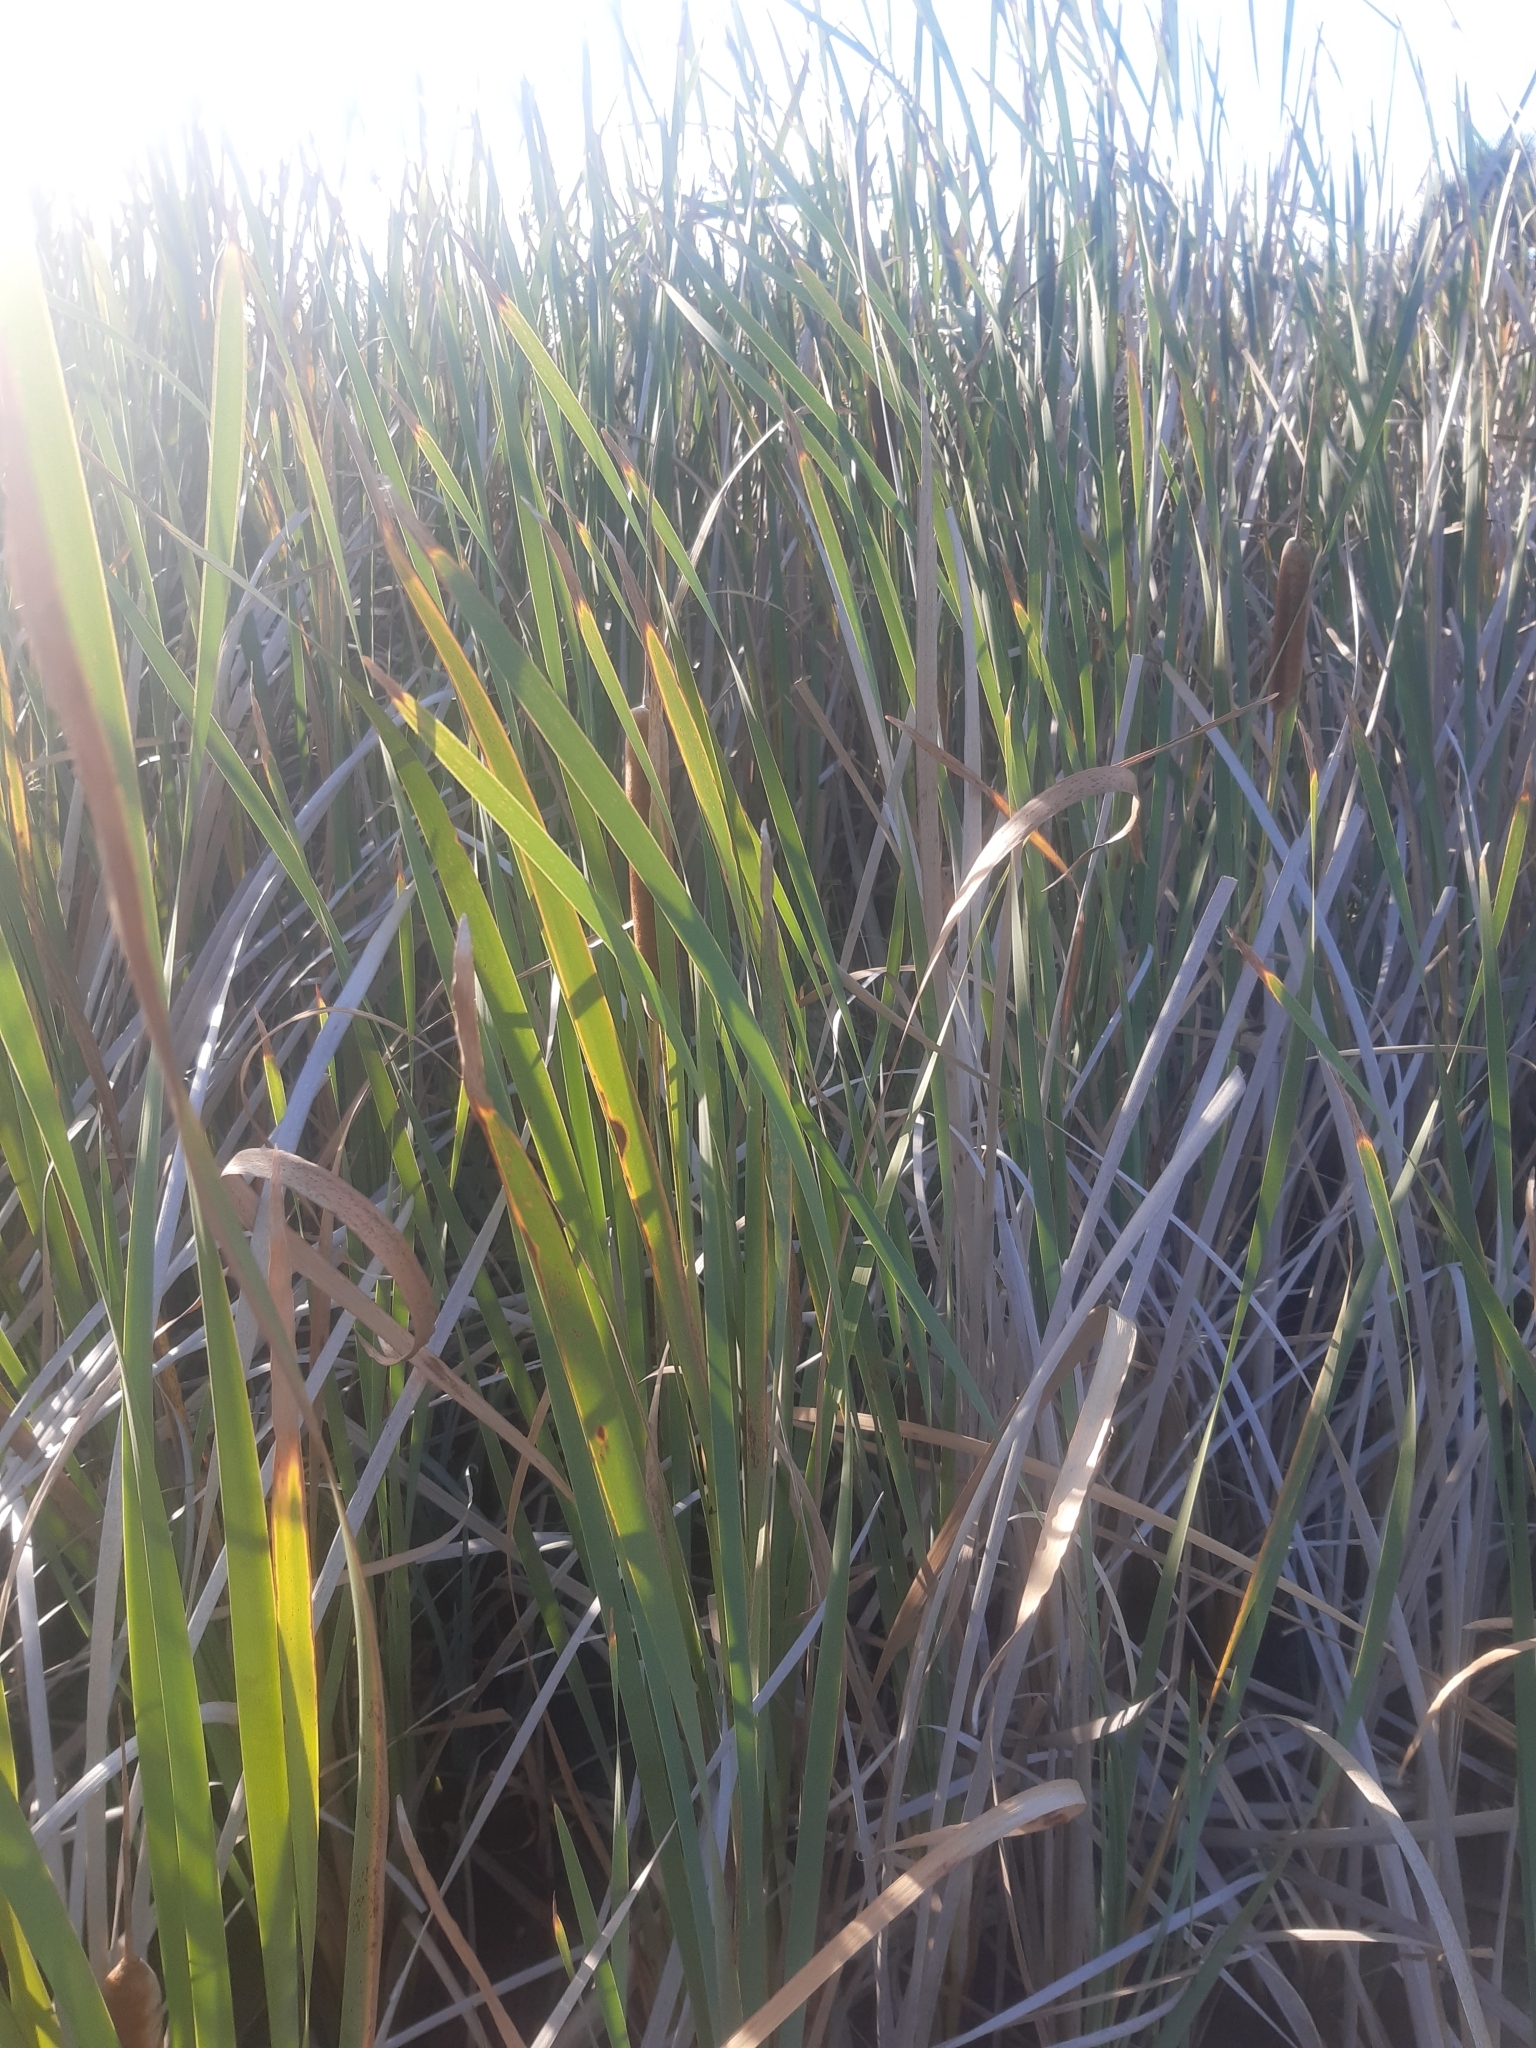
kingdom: Plantae
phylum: Tracheophyta
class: Liliopsida
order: Poales
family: Typhaceae
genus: Typha
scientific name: Typha orientalis
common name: Bullrush
